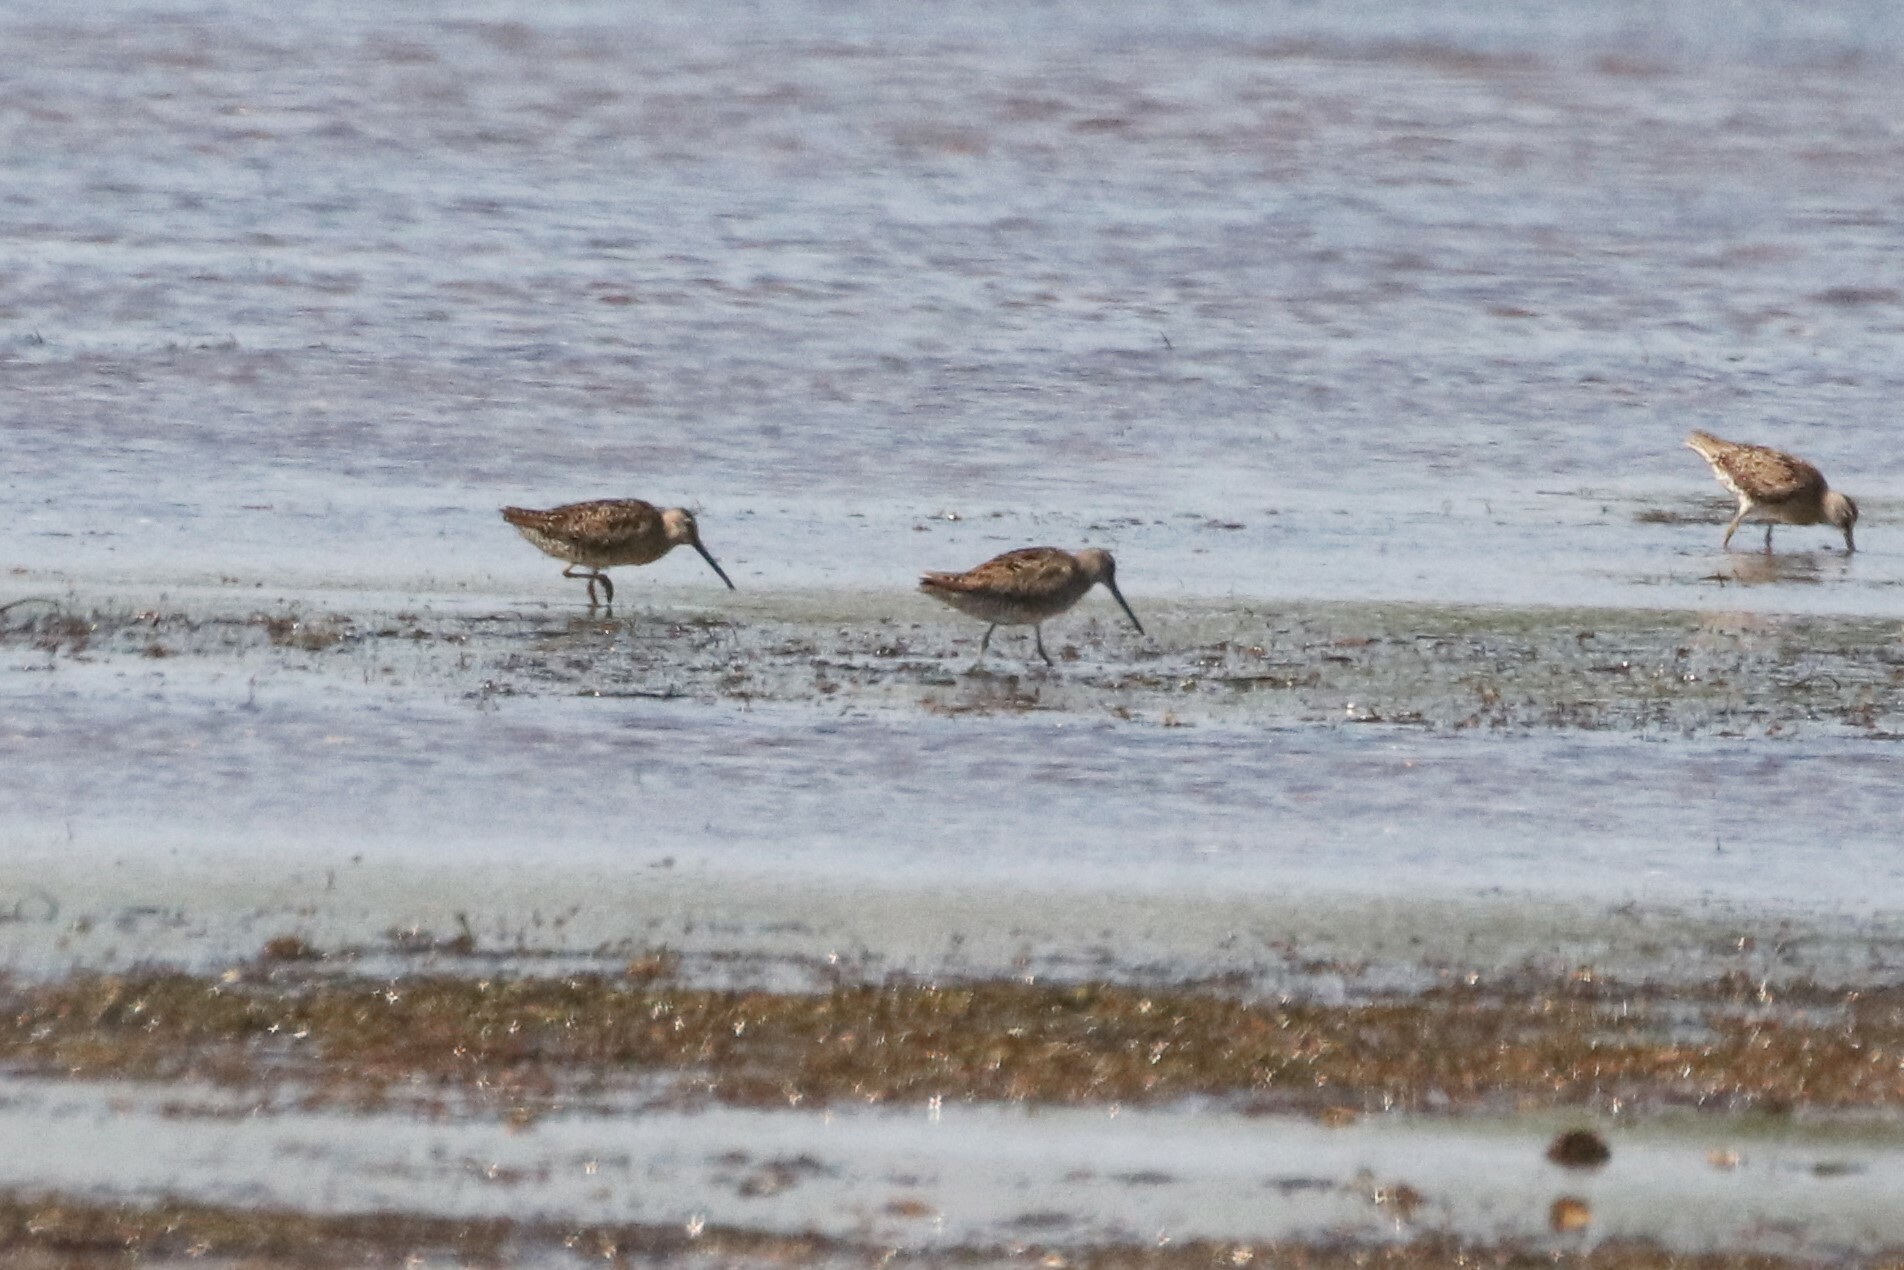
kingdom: Animalia
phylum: Chordata
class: Aves
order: Charadriiformes
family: Scolopacidae
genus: Limnodromus
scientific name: Limnodromus griseus
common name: Short-billed dowitcher
